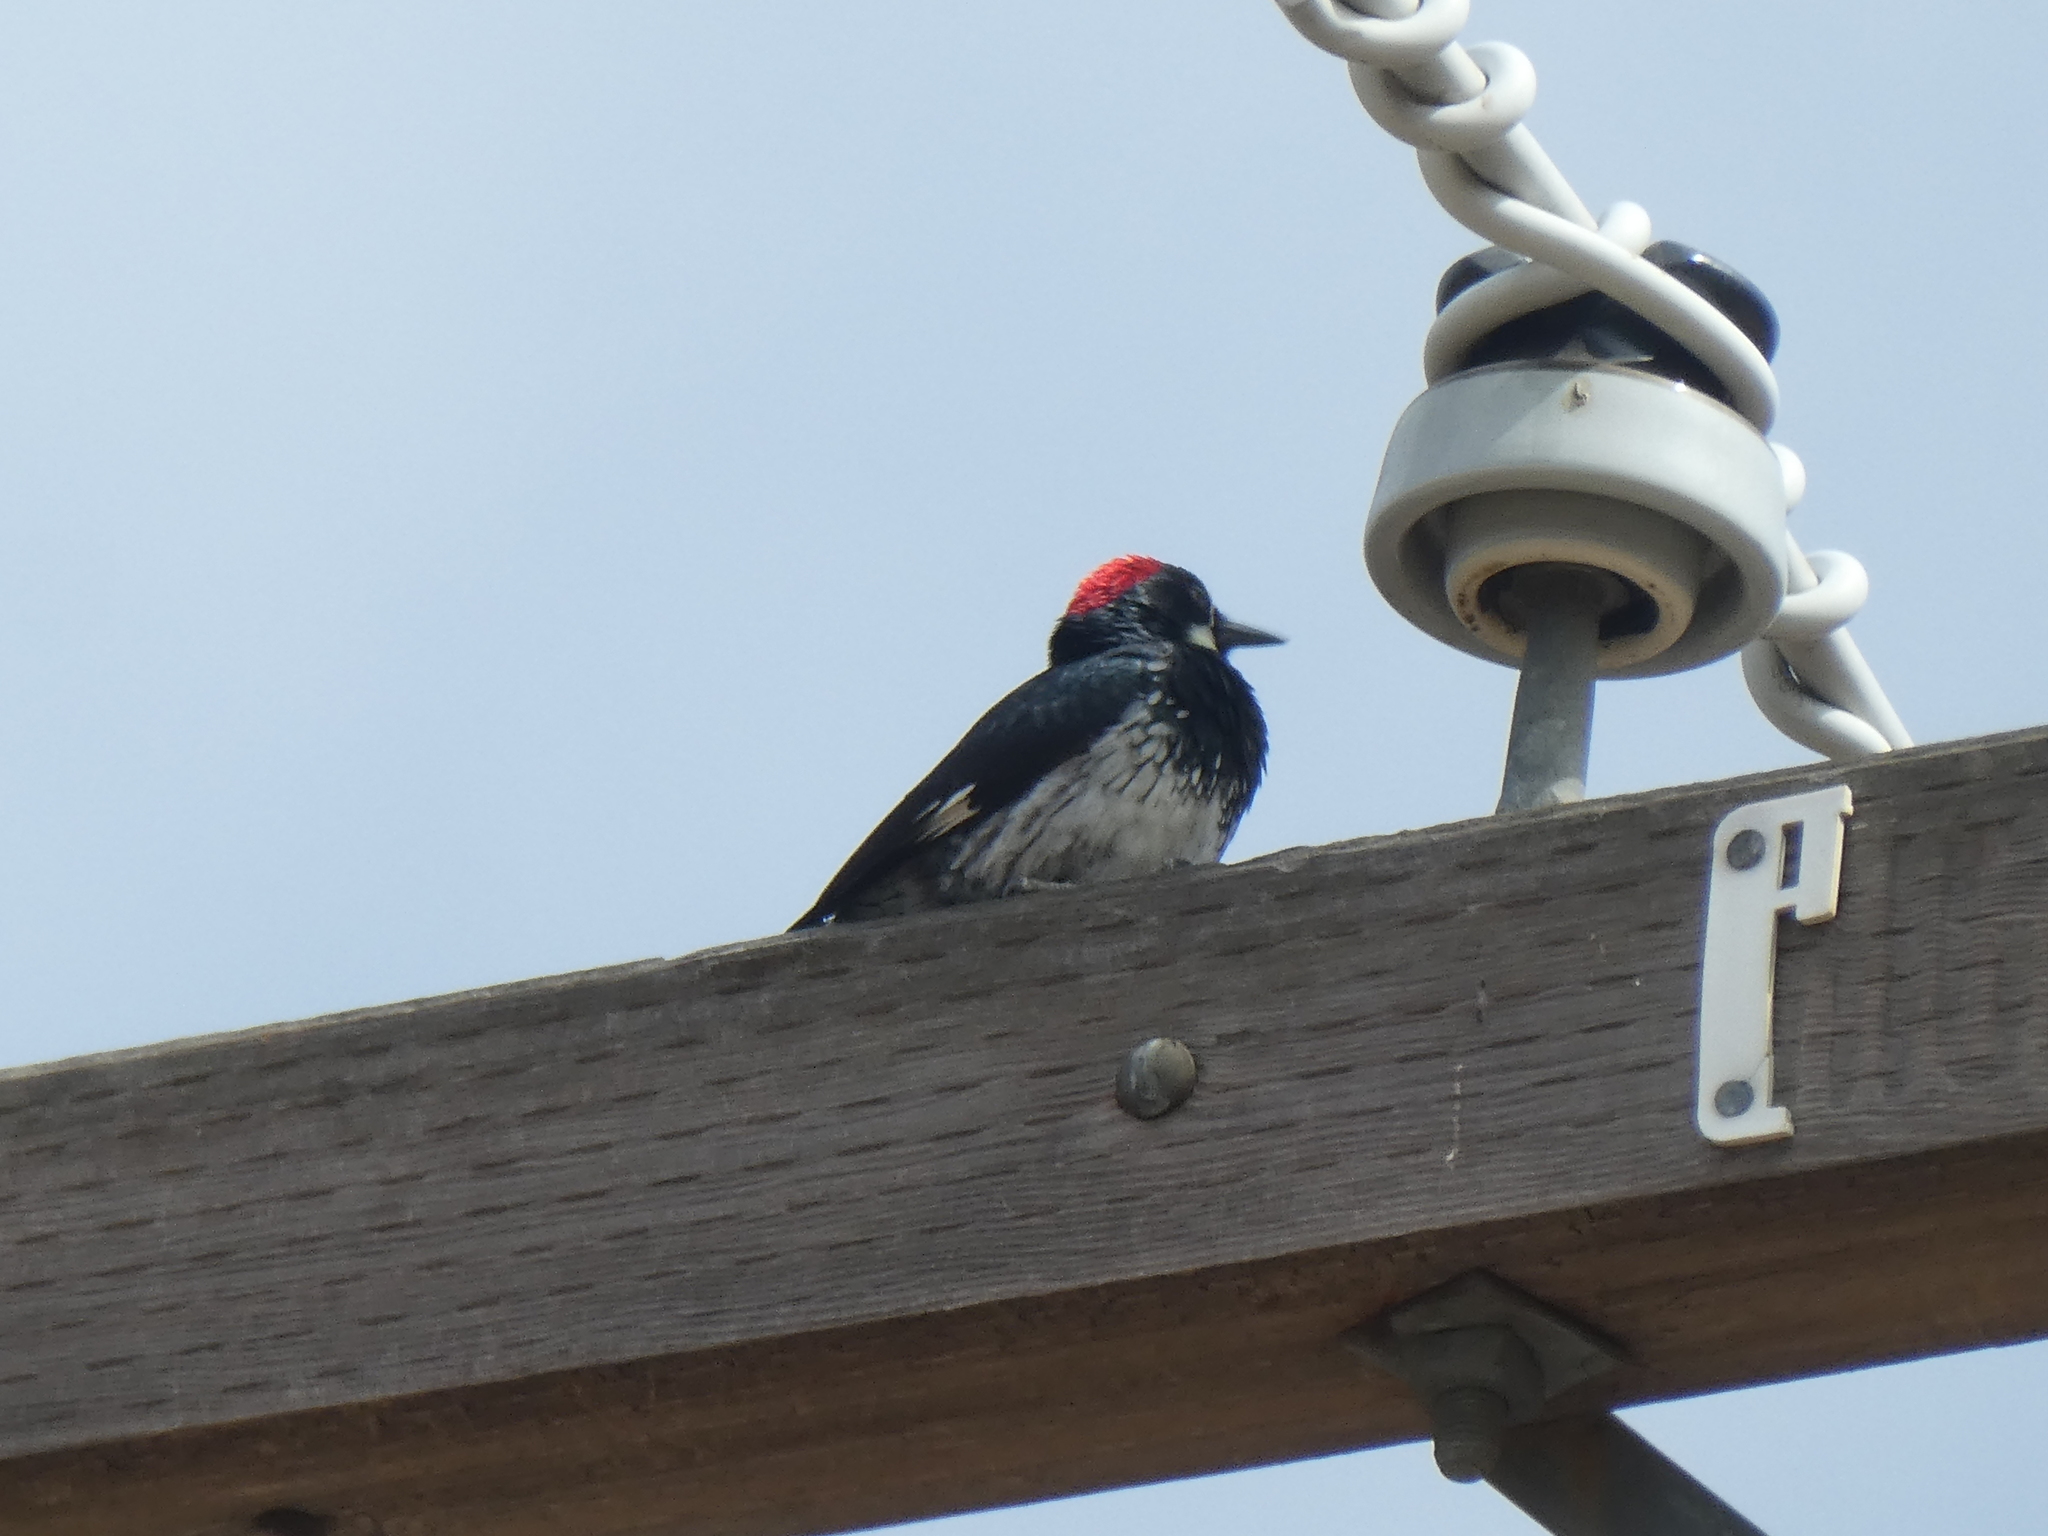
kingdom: Animalia
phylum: Chordata
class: Aves
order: Piciformes
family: Picidae
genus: Melanerpes
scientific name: Melanerpes formicivorus
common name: Acorn woodpecker
